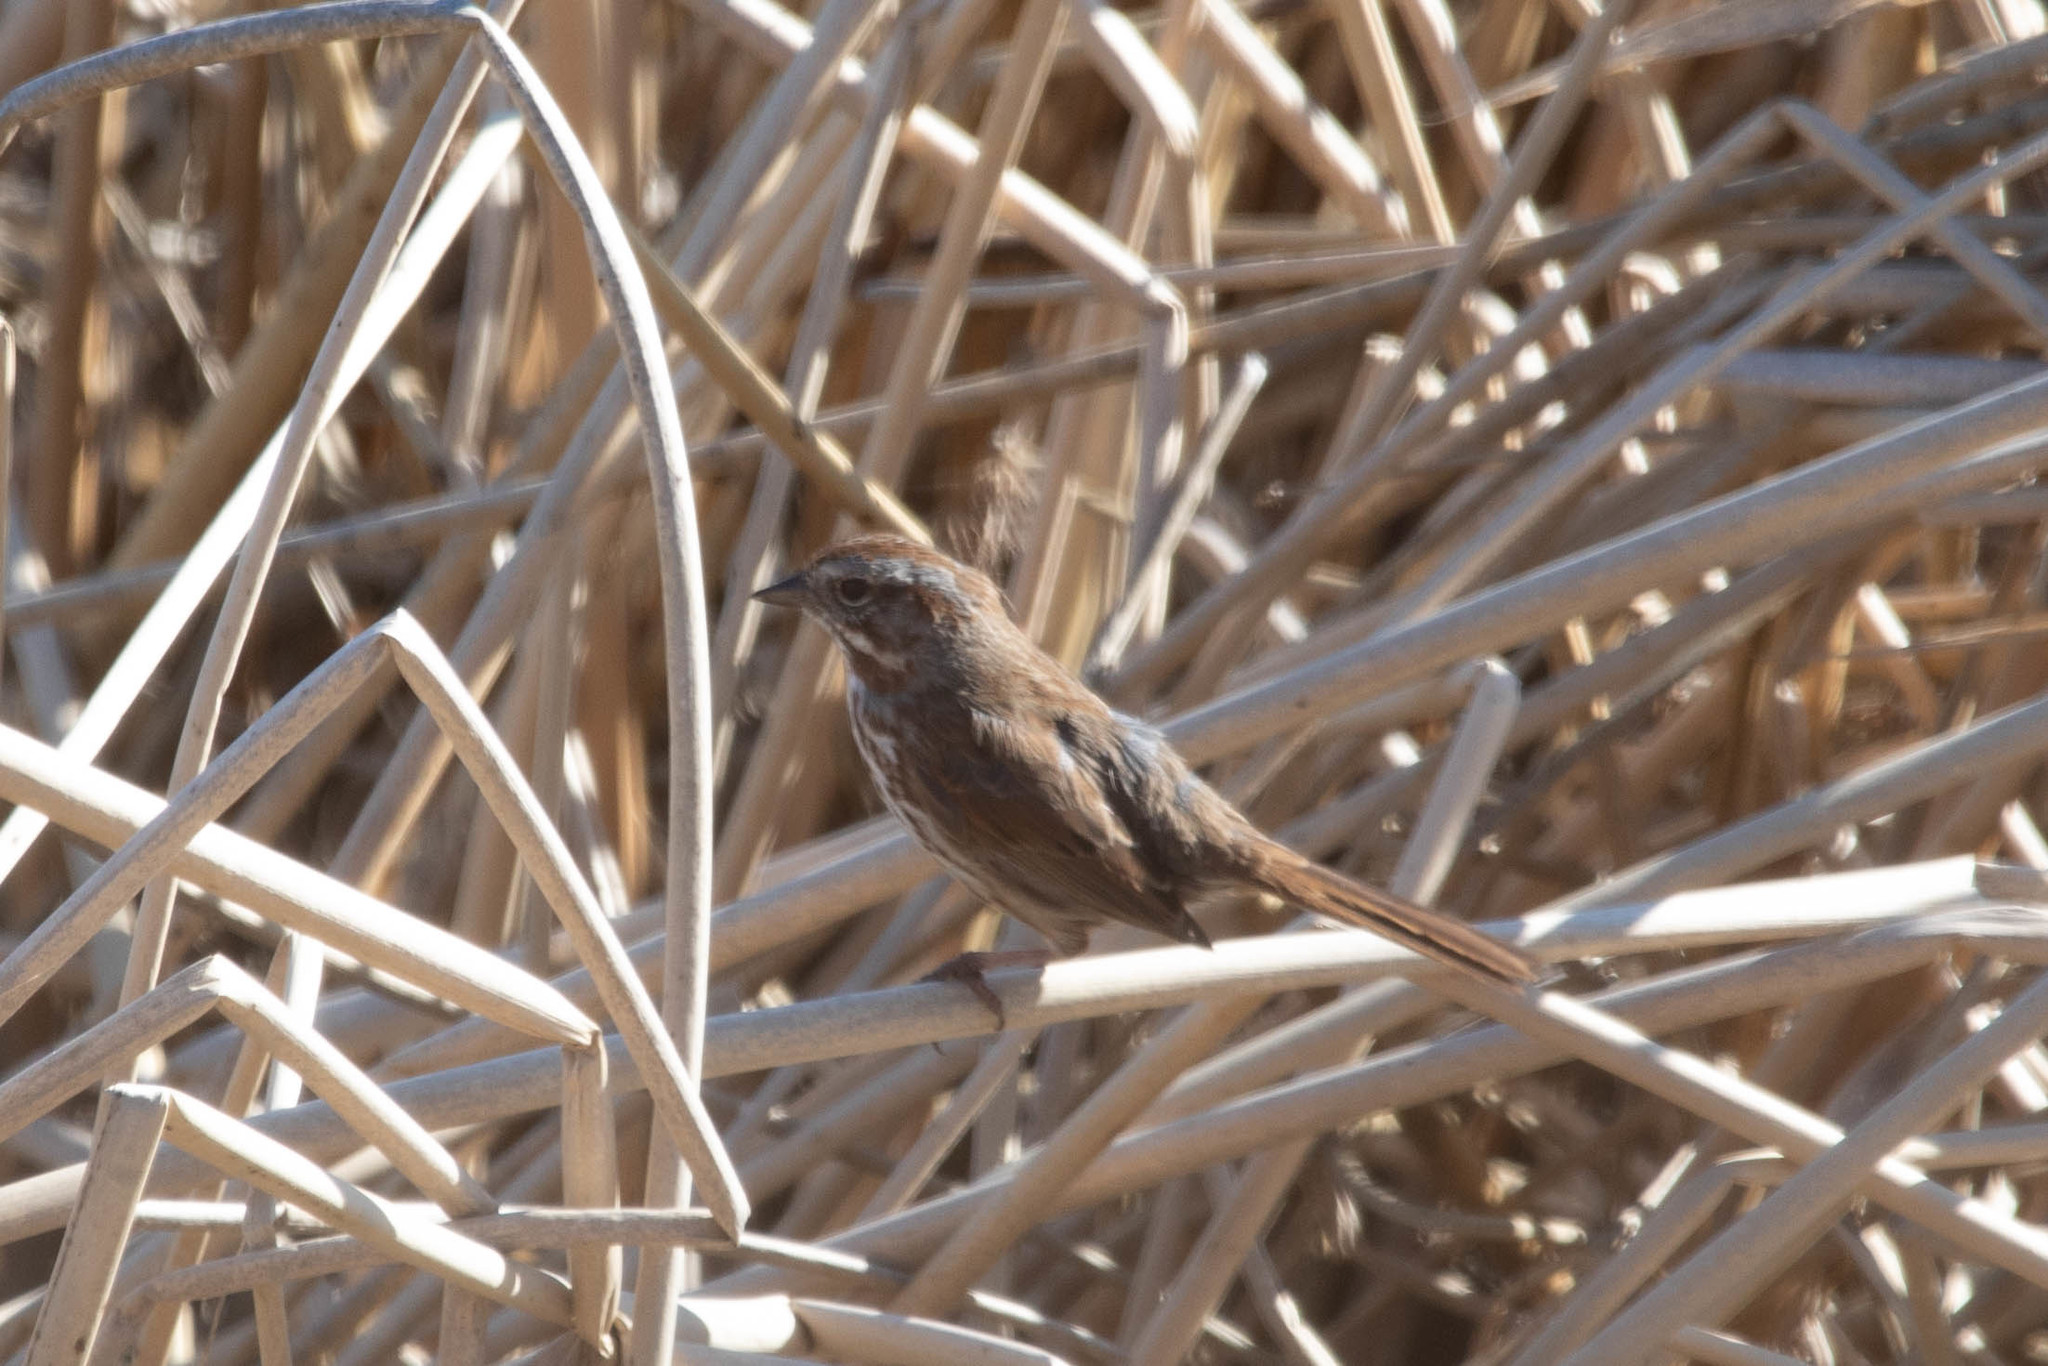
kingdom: Animalia
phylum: Chordata
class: Aves
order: Passeriformes
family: Passerellidae
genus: Melospiza
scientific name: Melospiza melodia
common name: Song sparrow
